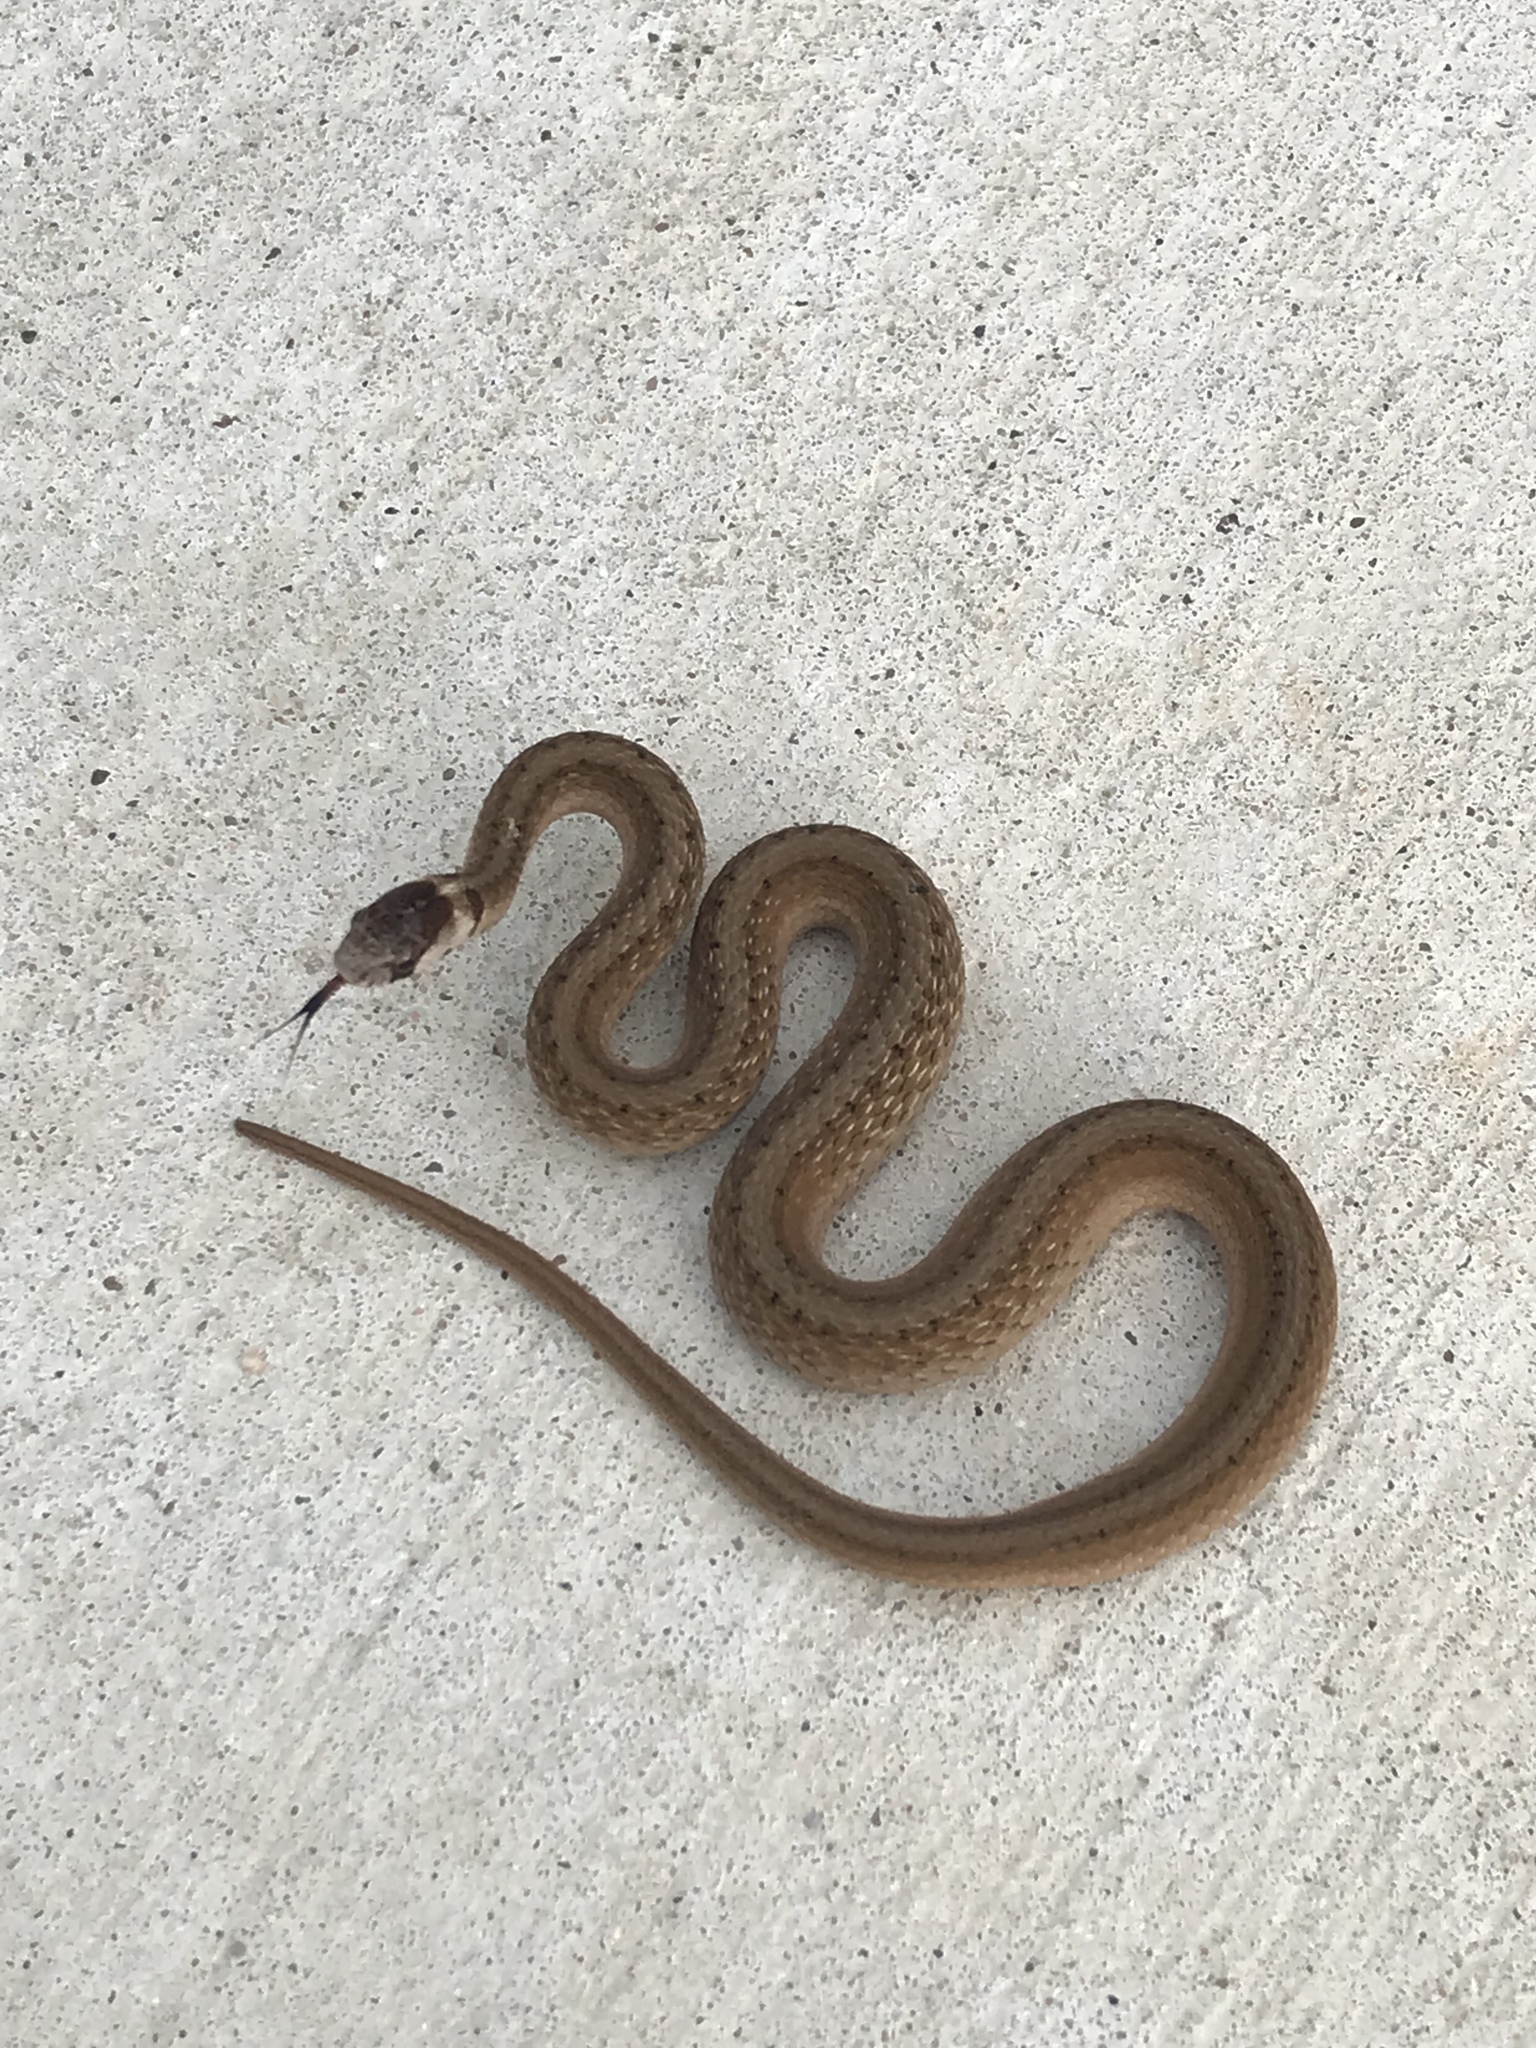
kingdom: Animalia
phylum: Chordata
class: Squamata
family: Colubridae
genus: Storeria
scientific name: Storeria dekayi
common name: (dekay’s) brown snake
